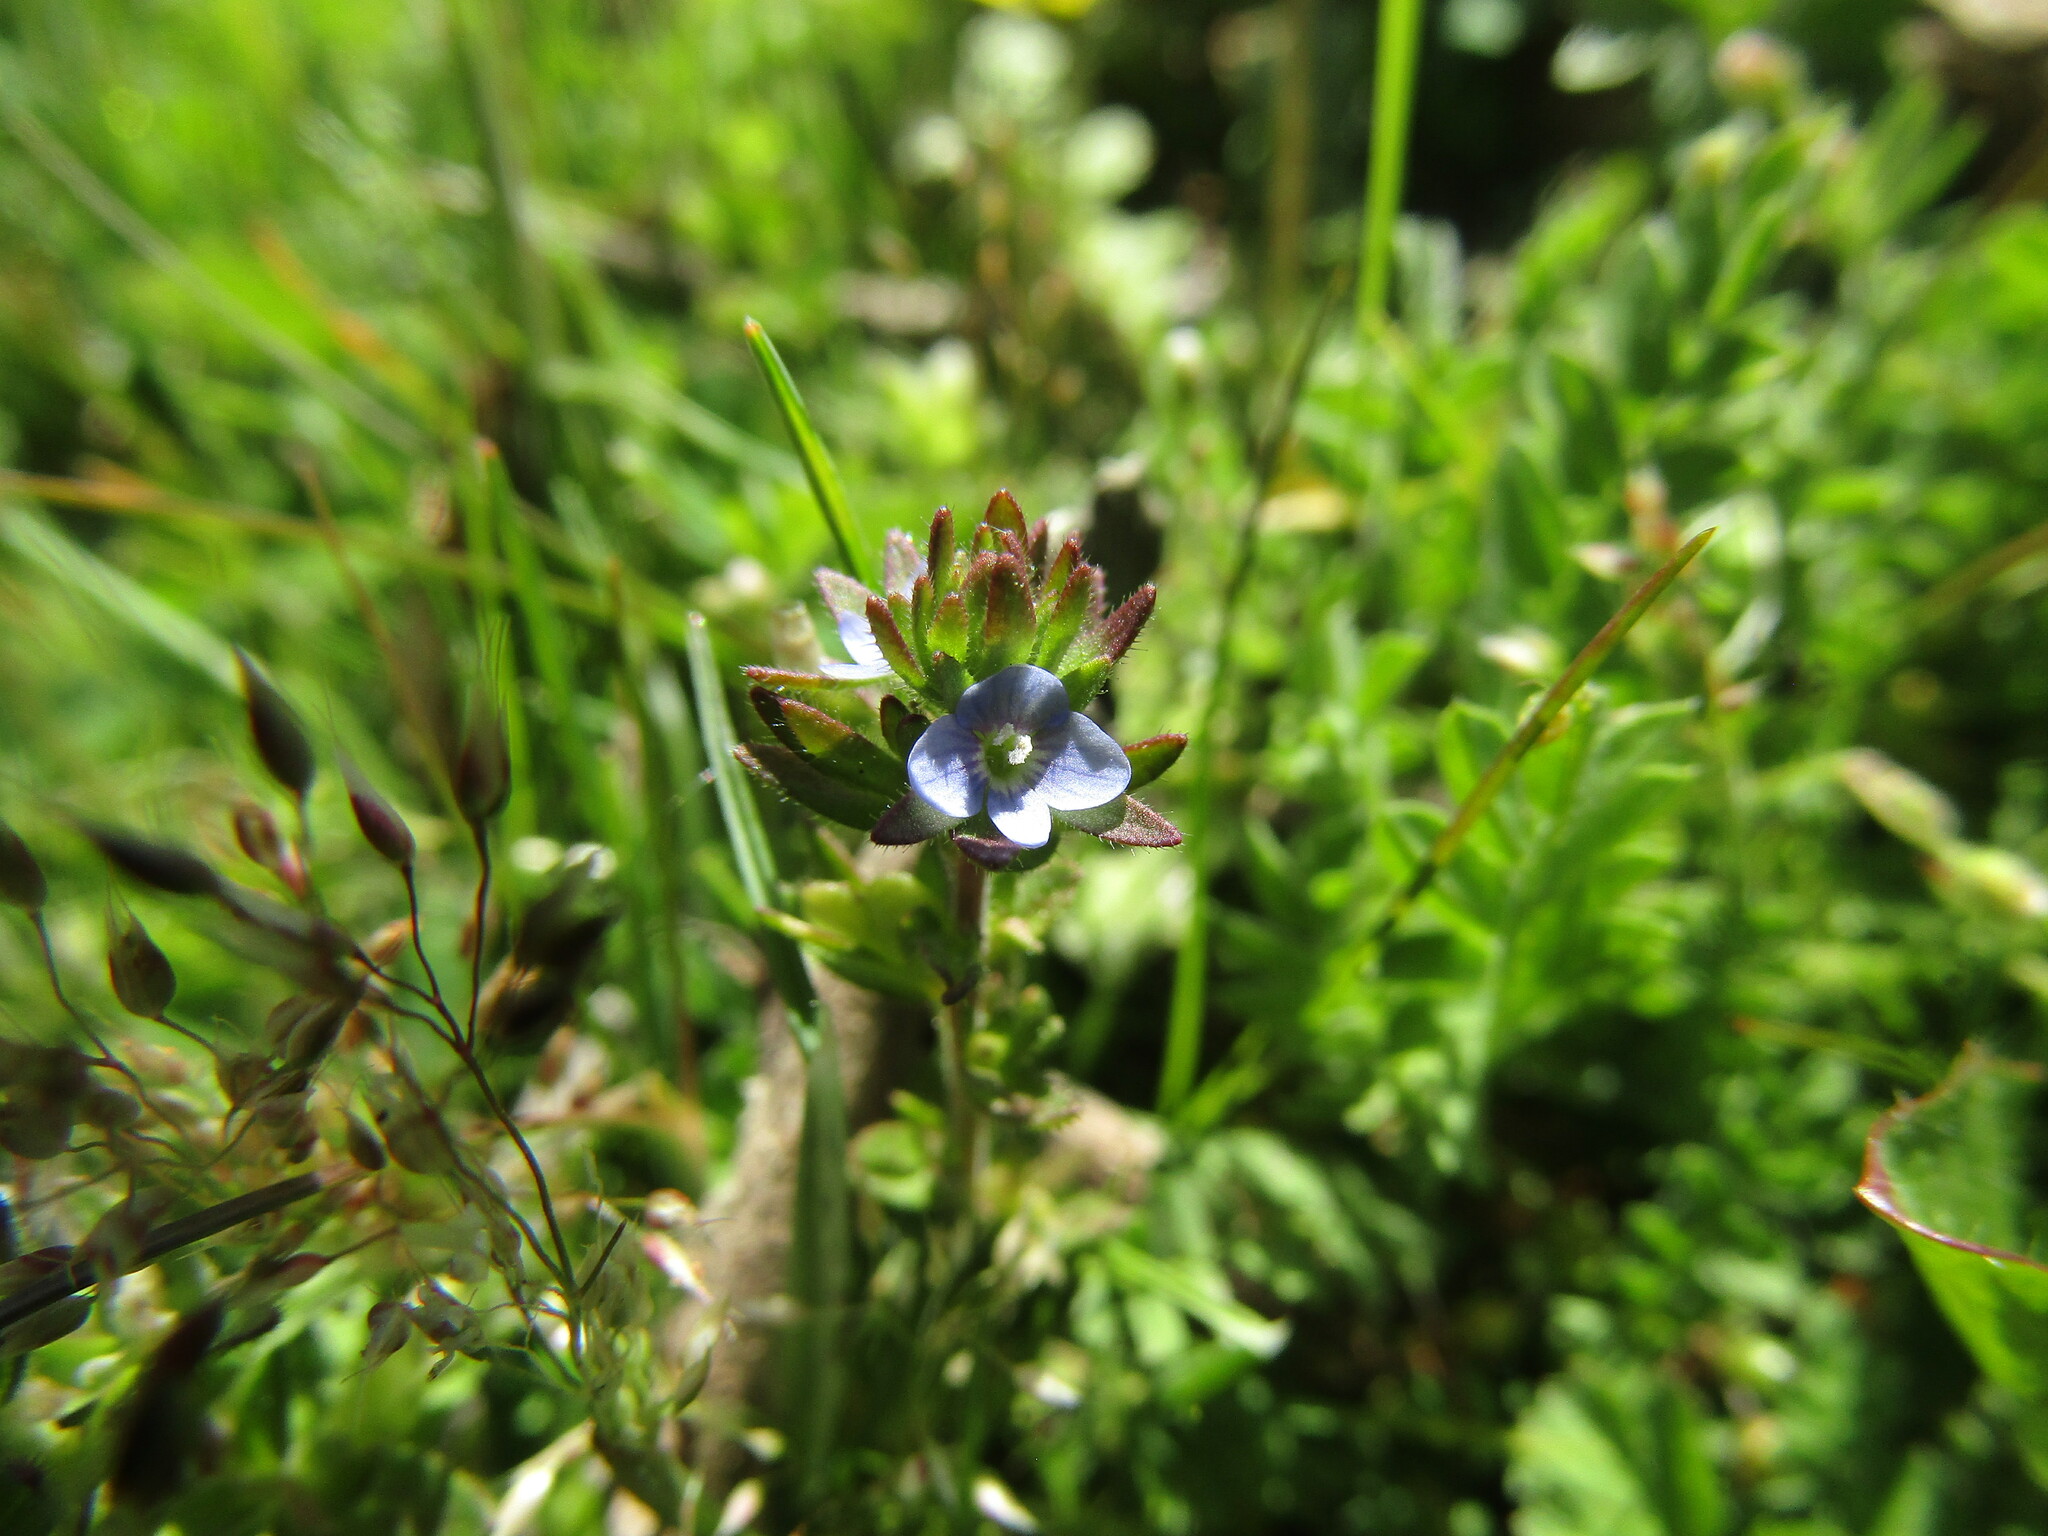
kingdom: Plantae
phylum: Tracheophyta
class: Magnoliopsida
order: Lamiales
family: Plantaginaceae
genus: Veronica
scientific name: Veronica arvensis
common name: Corn speedwell
